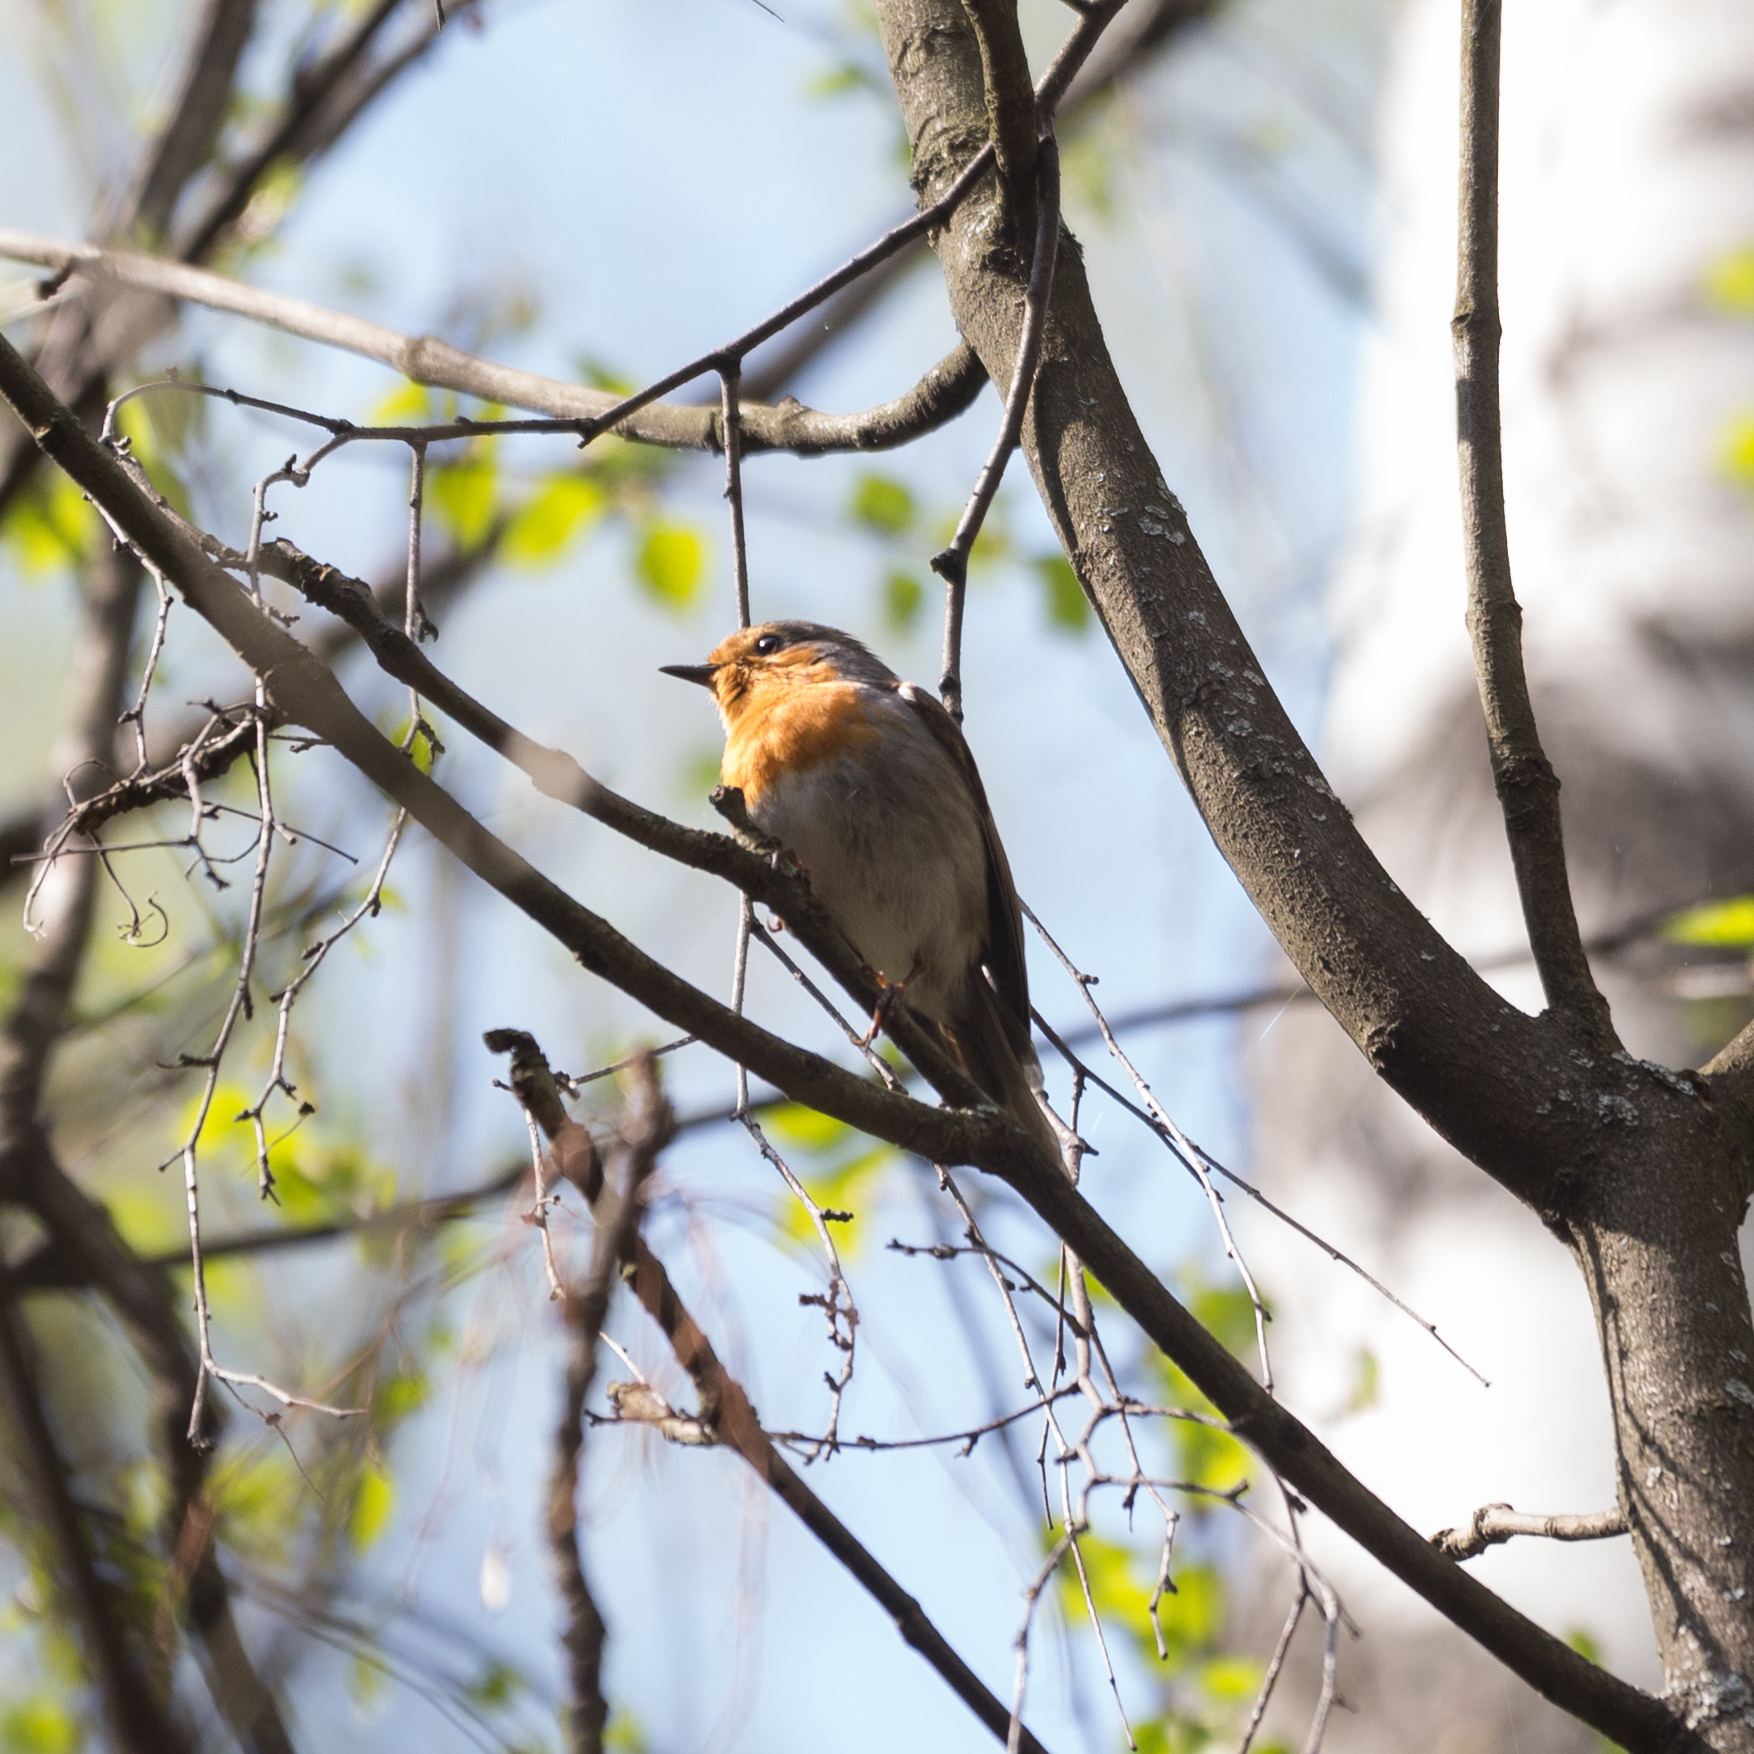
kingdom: Animalia
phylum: Chordata
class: Aves
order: Passeriformes
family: Muscicapidae
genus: Erithacus
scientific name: Erithacus rubecula
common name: European robin
